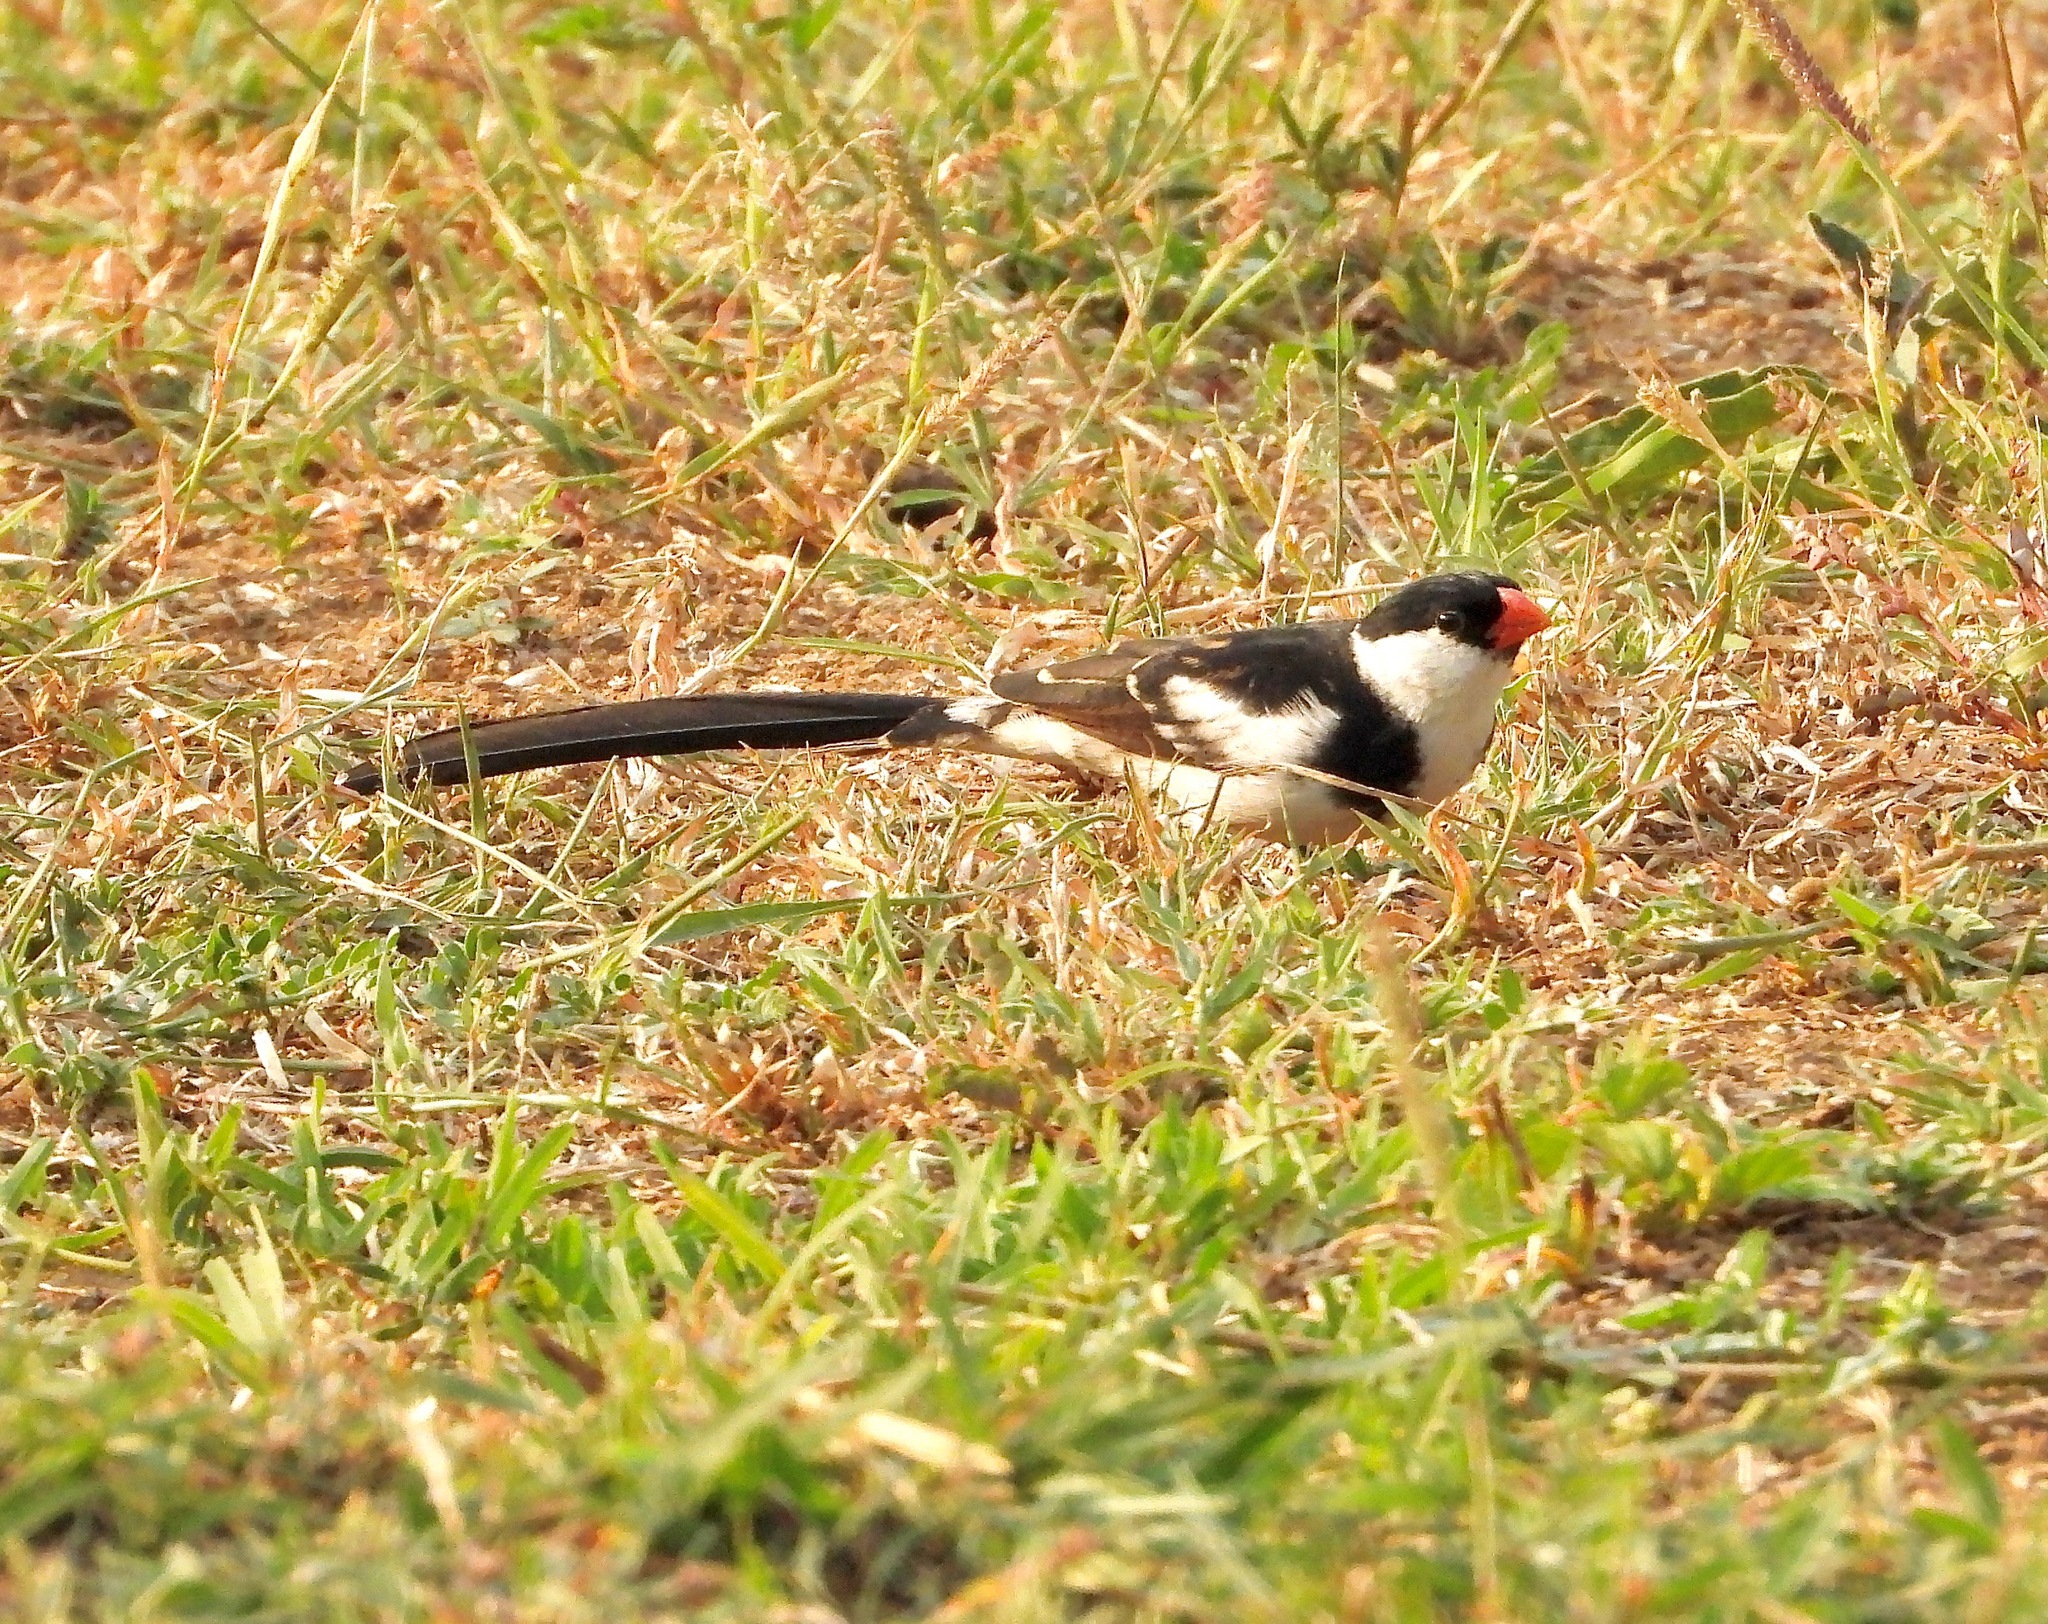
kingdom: Animalia
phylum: Chordata
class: Aves
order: Passeriformes
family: Viduidae
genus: Vidua
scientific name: Vidua macroura
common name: Pin-tailed whydah
